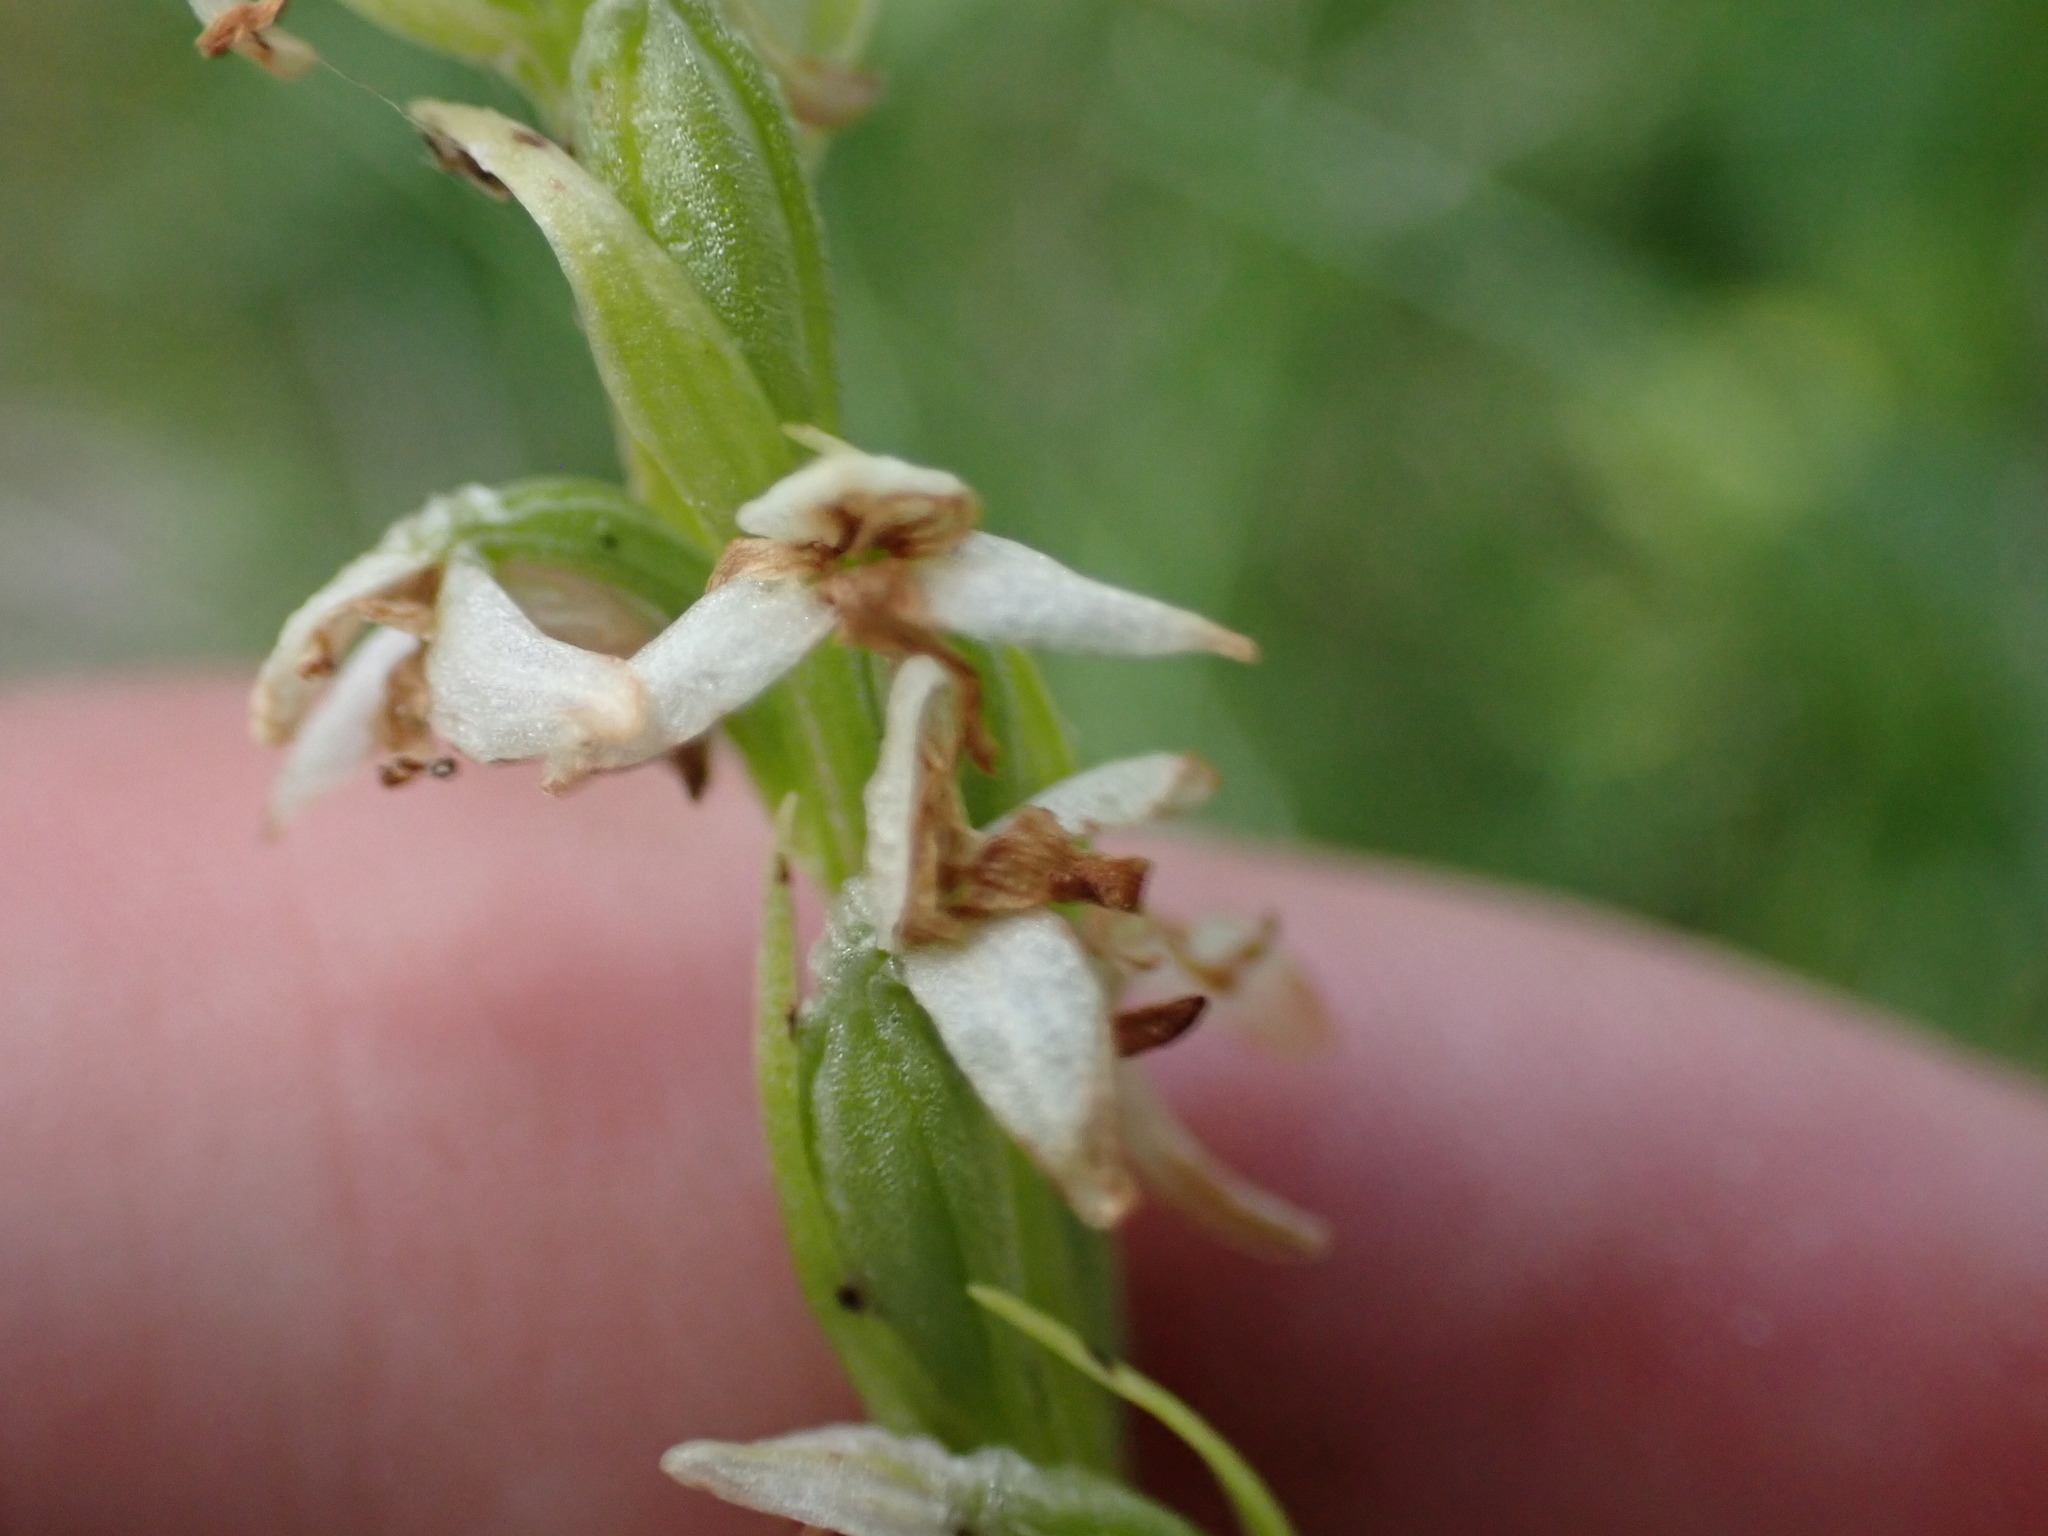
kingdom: Plantae
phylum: Tracheophyta
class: Liliopsida
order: Asparagales
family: Orchidaceae
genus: Platanthera
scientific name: Platanthera dilatata
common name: Bog candles
